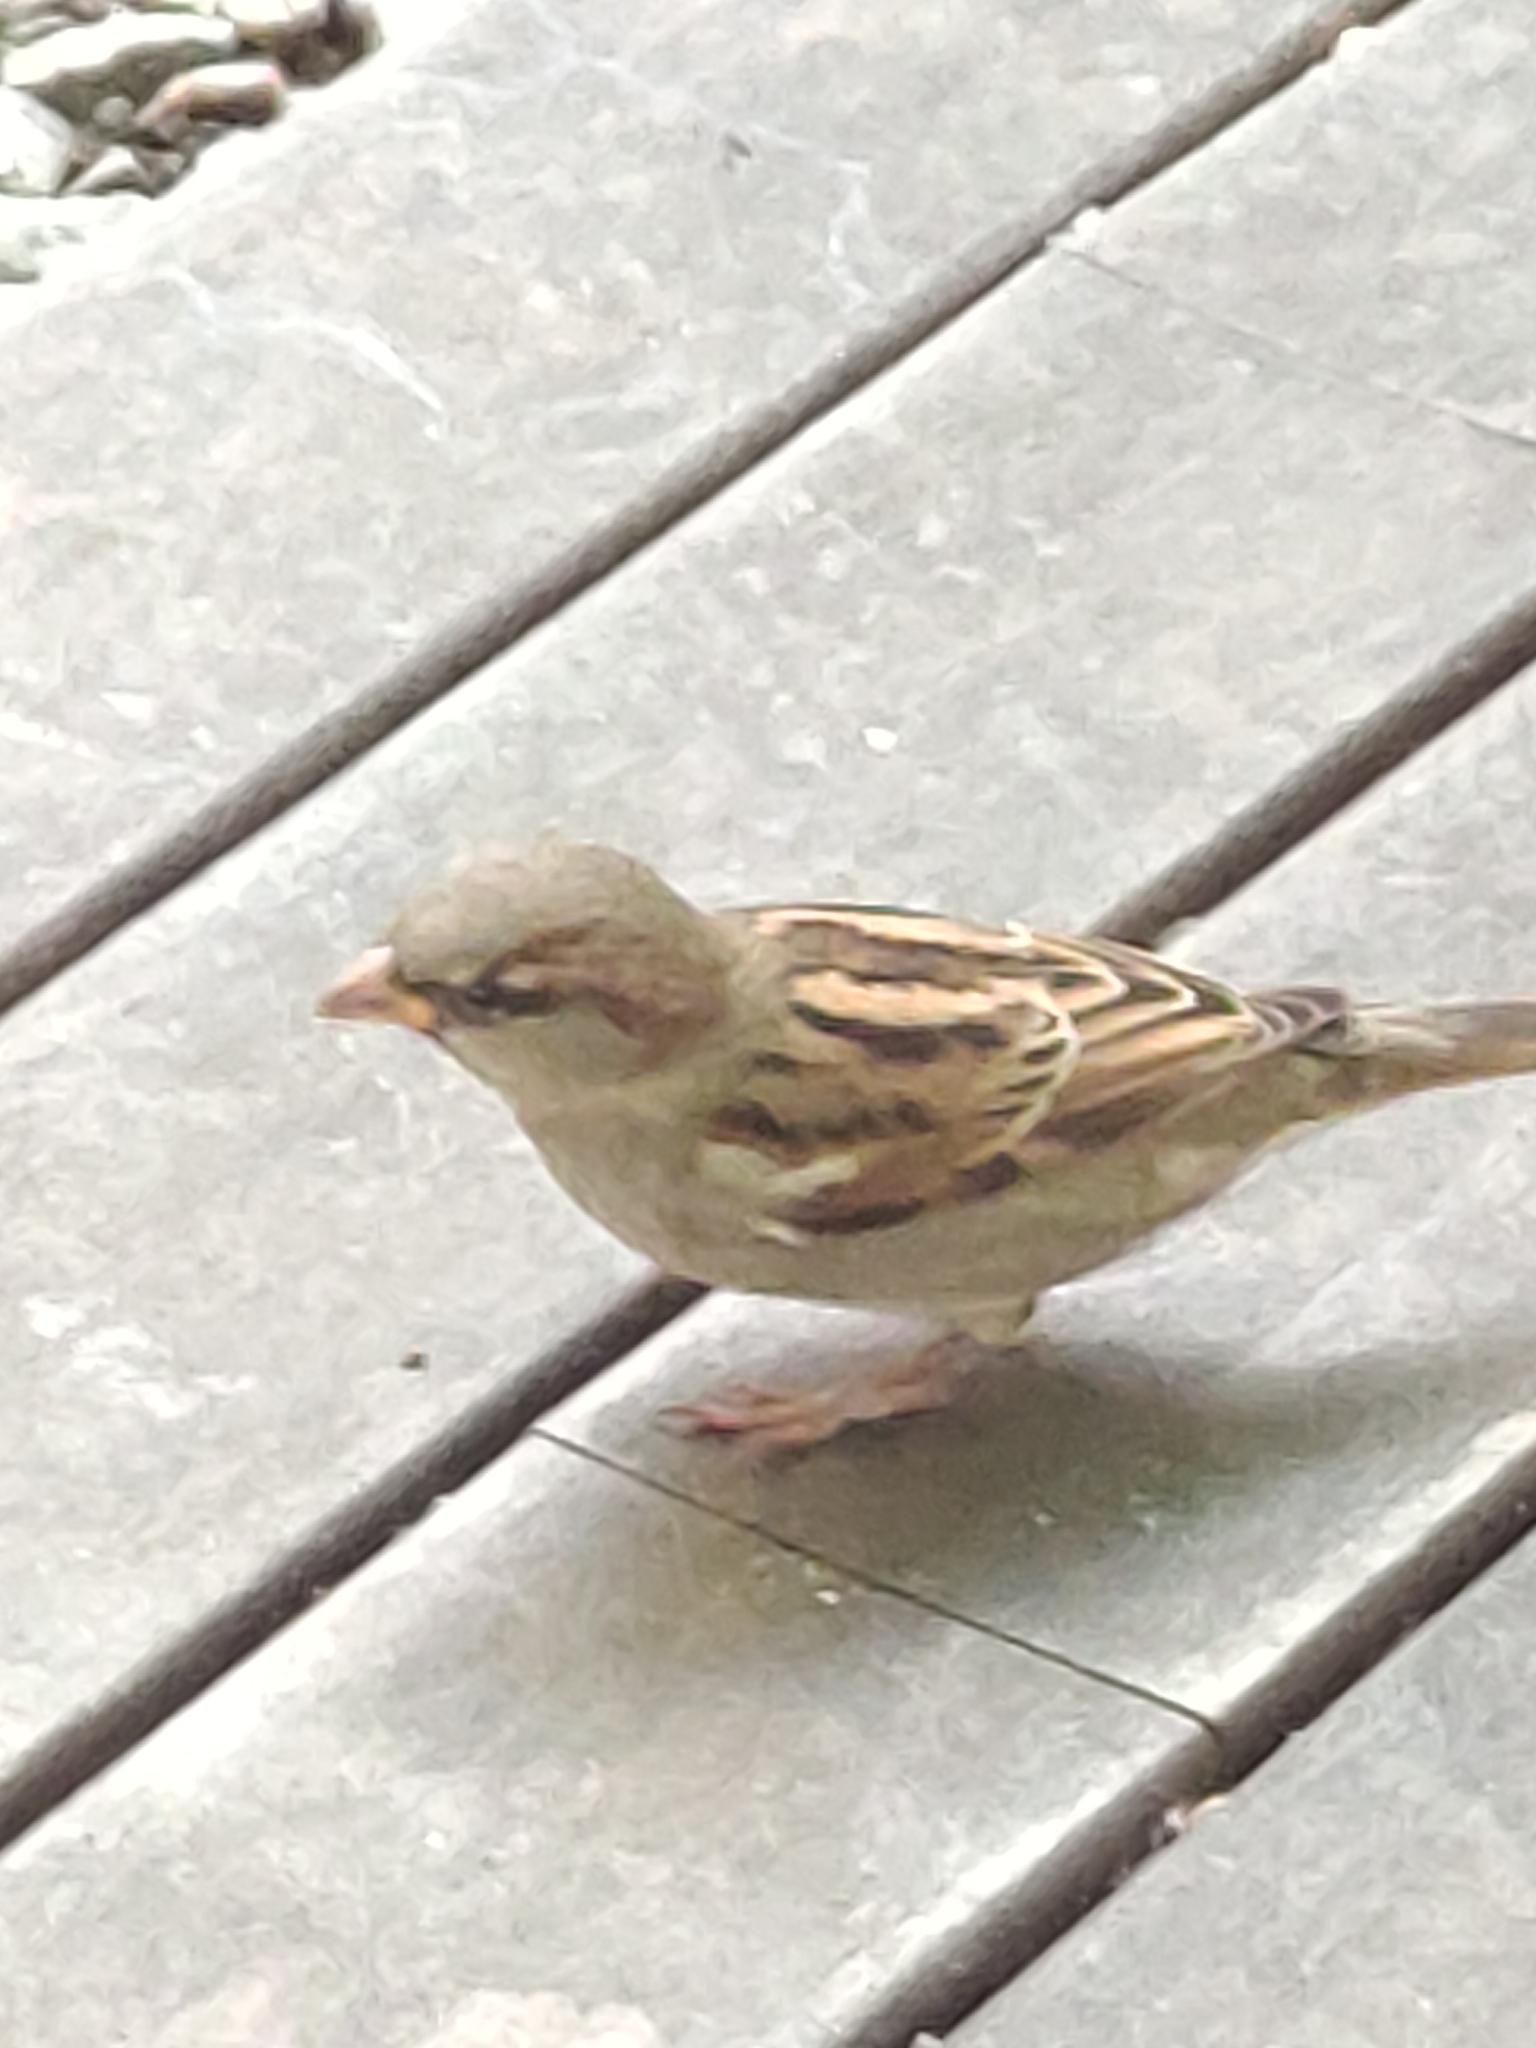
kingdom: Animalia
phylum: Chordata
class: Aves
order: Passeriformes
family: Passeridae
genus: Passer
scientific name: Passer domesticus
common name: House sparrow
